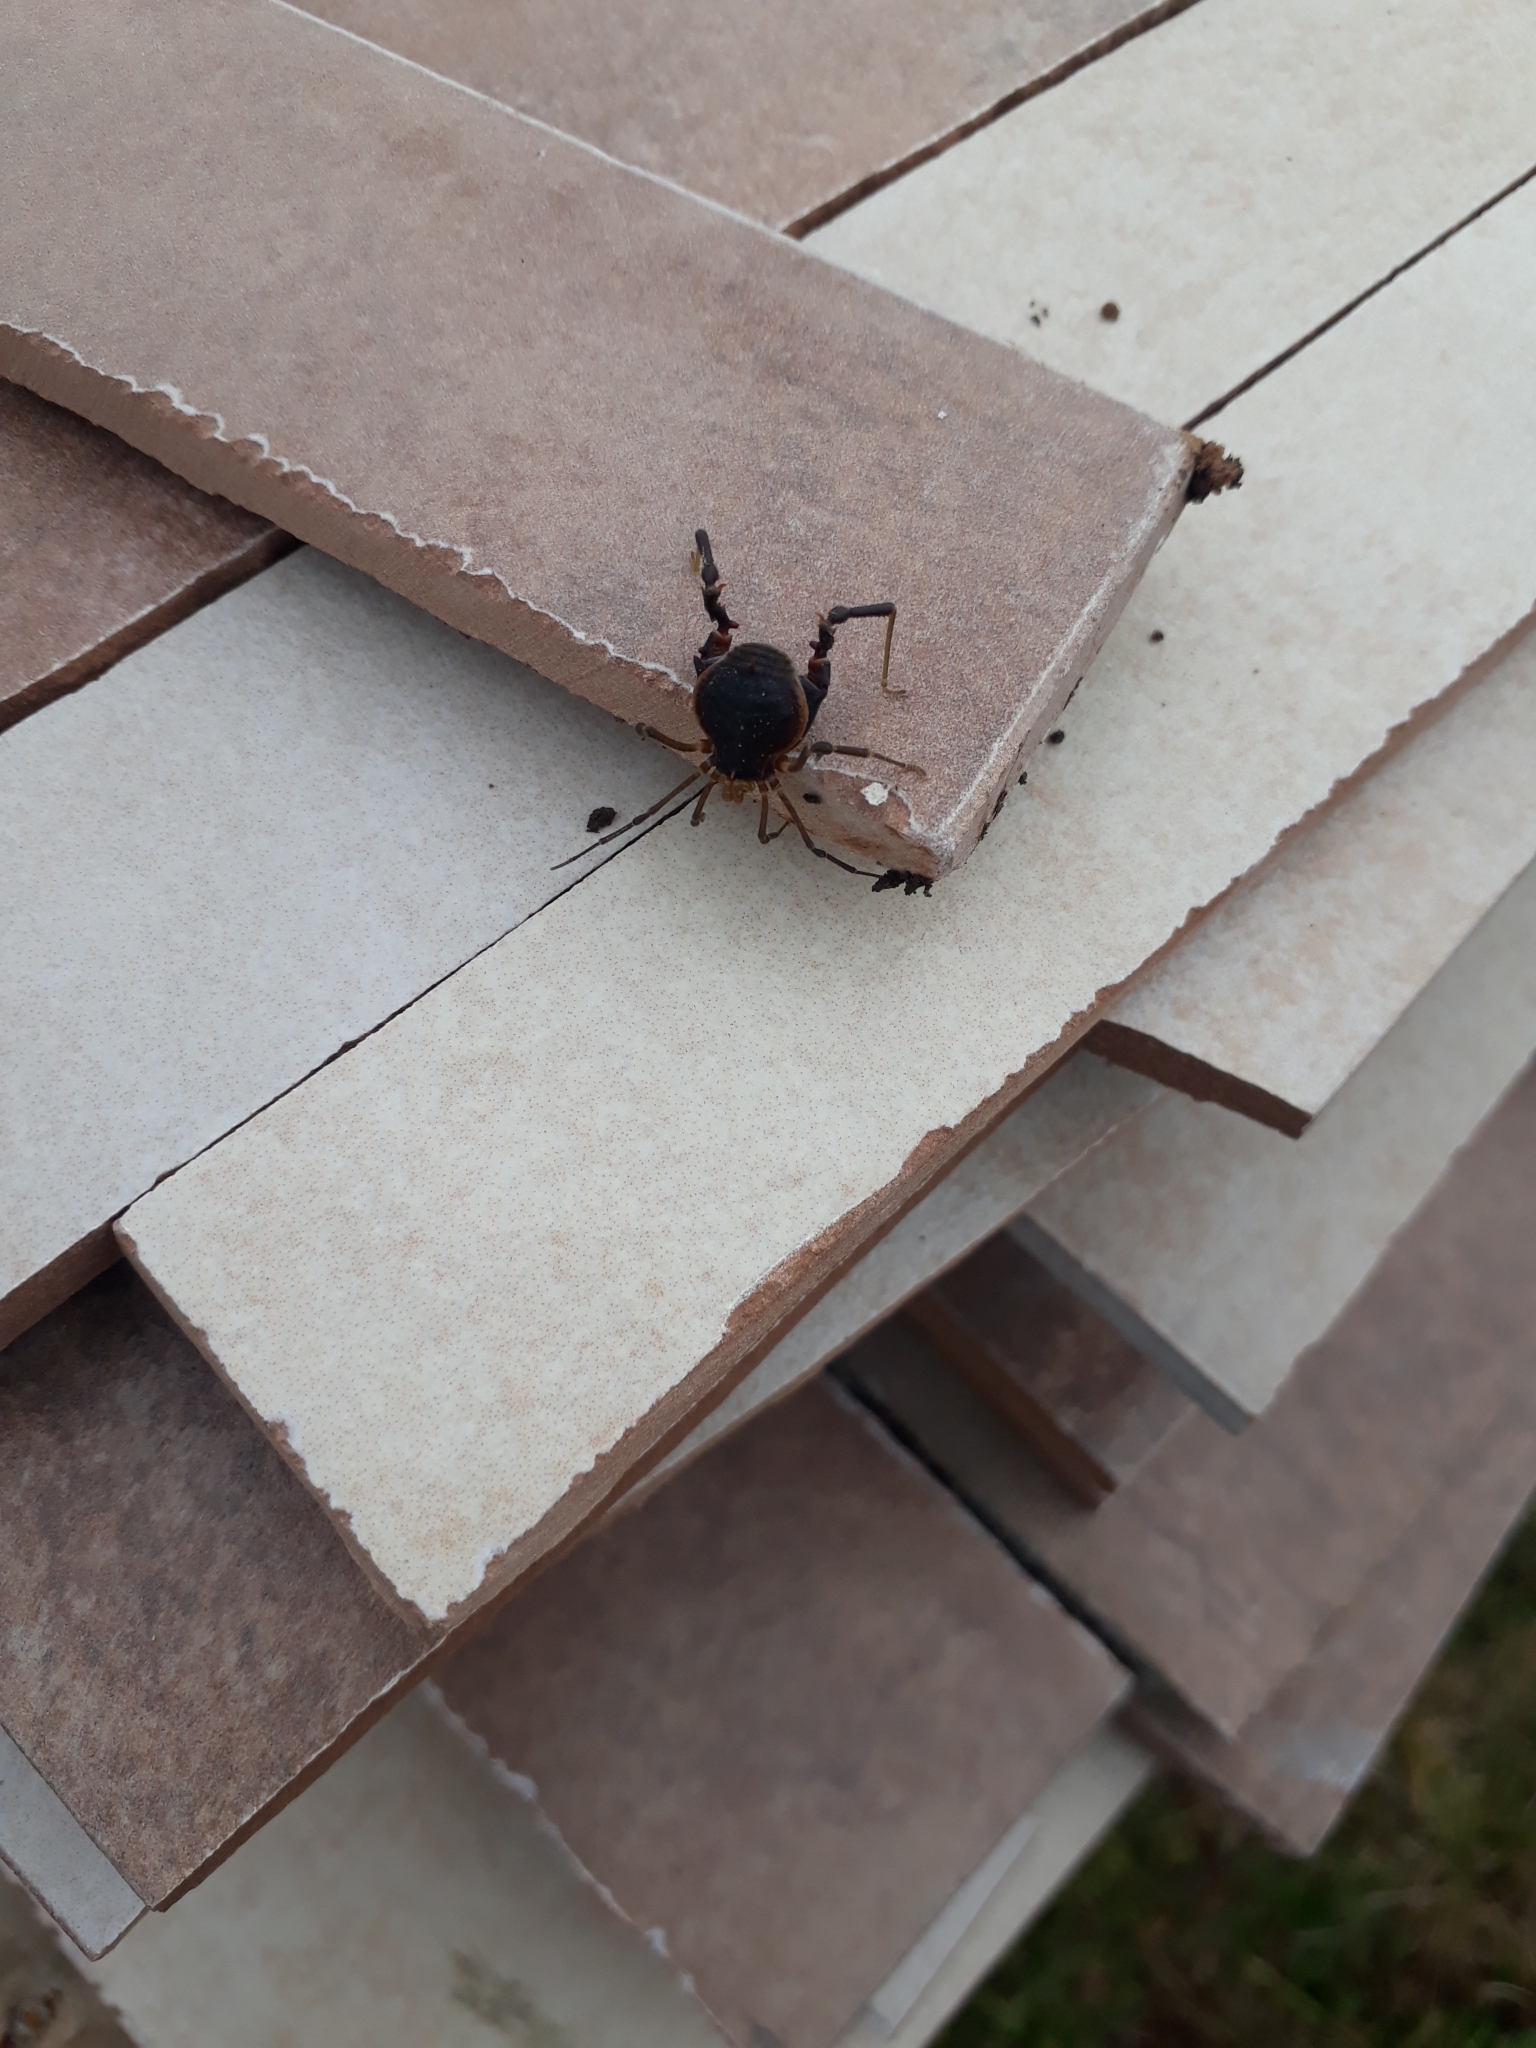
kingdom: Animalia
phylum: Arthropoda
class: Arachnida
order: Opiliones
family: Gonyleptidae
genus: Acanthopachylus
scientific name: Acanthopachylus robustus
